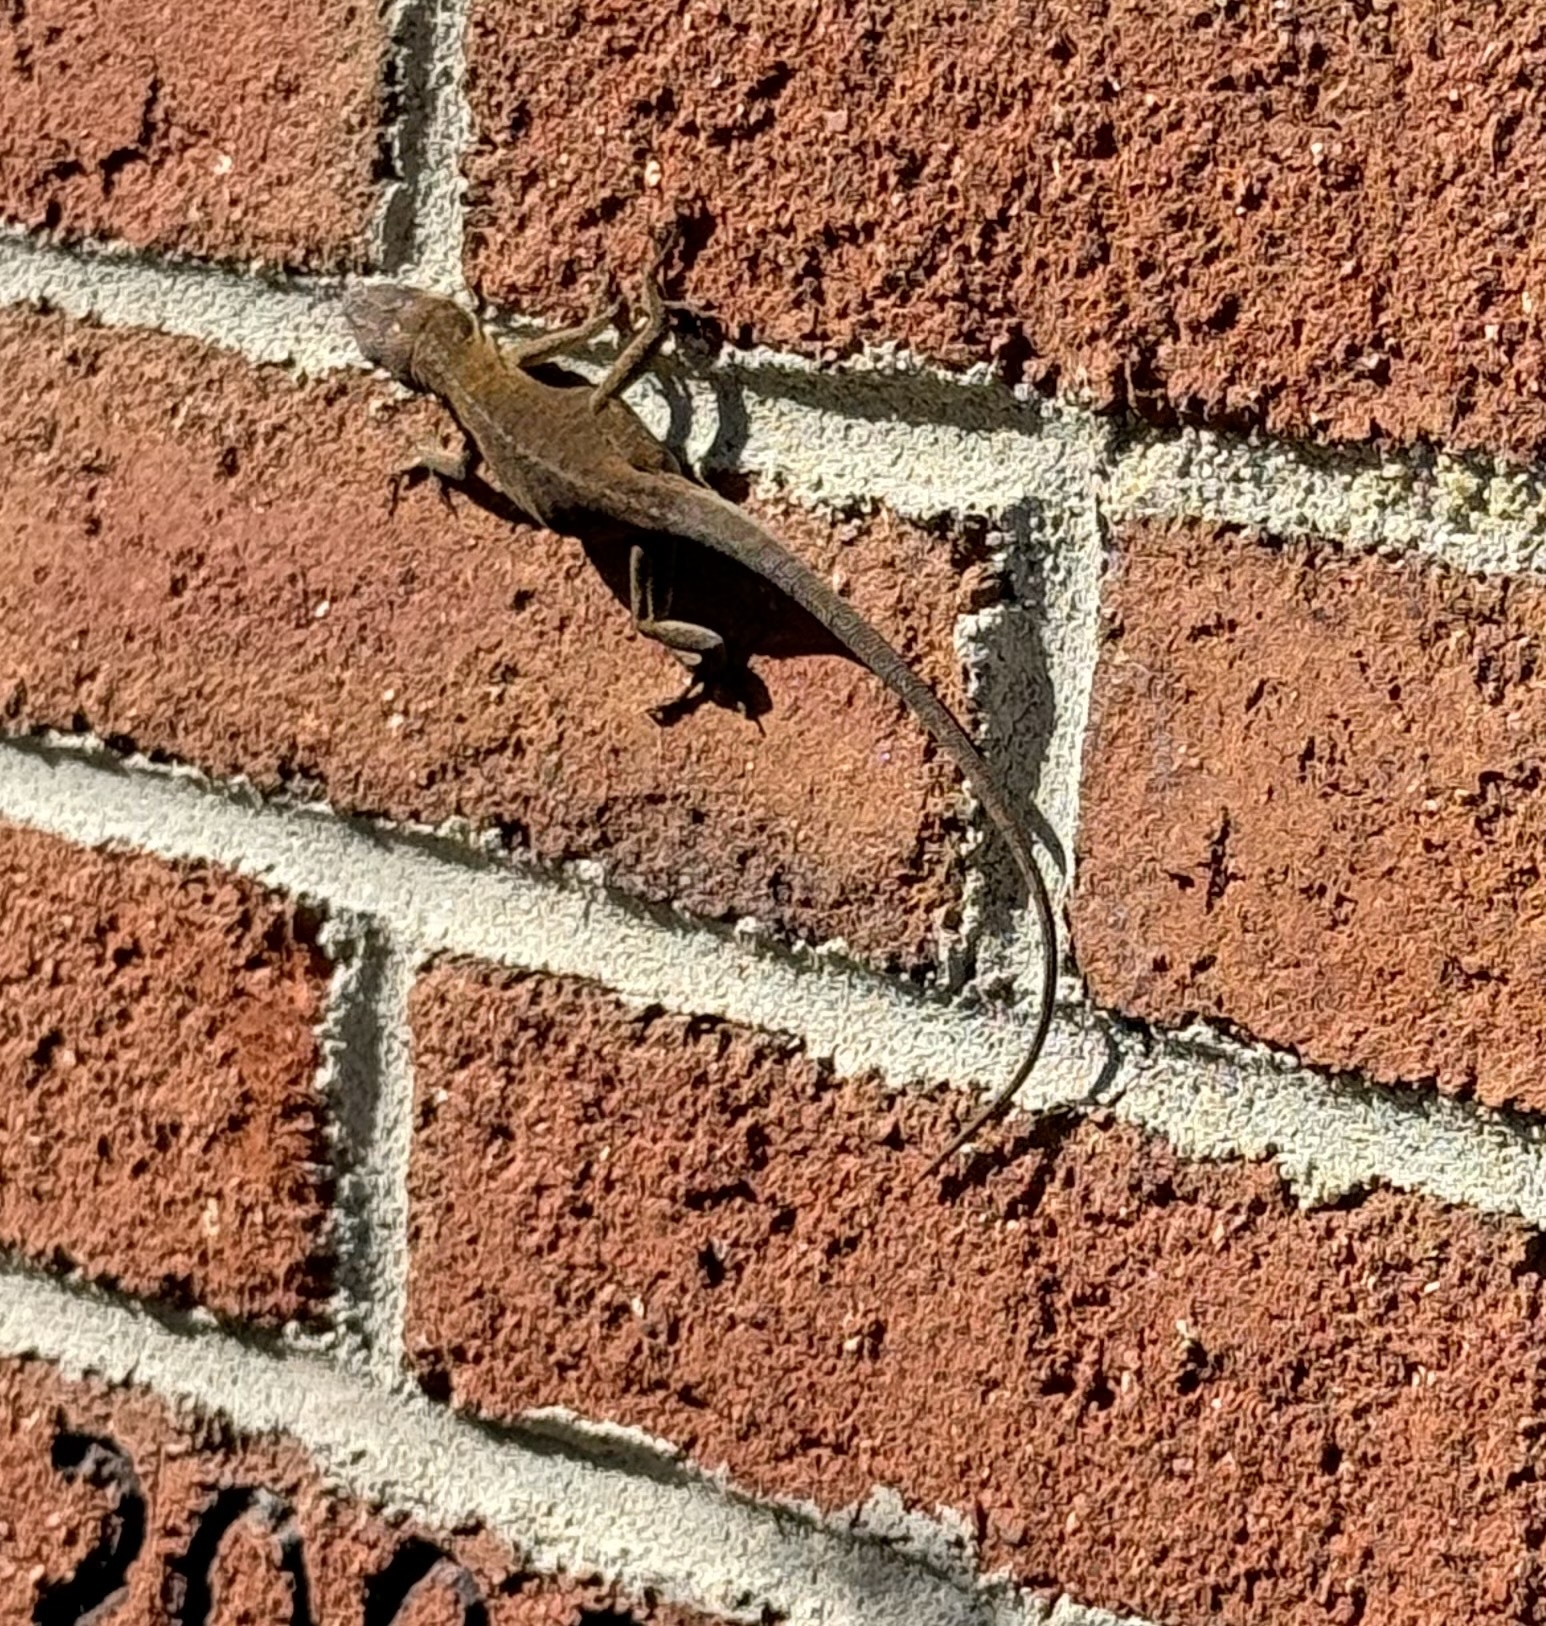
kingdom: Animalia
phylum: Chordata
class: Squamata
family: Dactyloidae
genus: Anolis
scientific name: Anolis carolinensis
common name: Green anole
